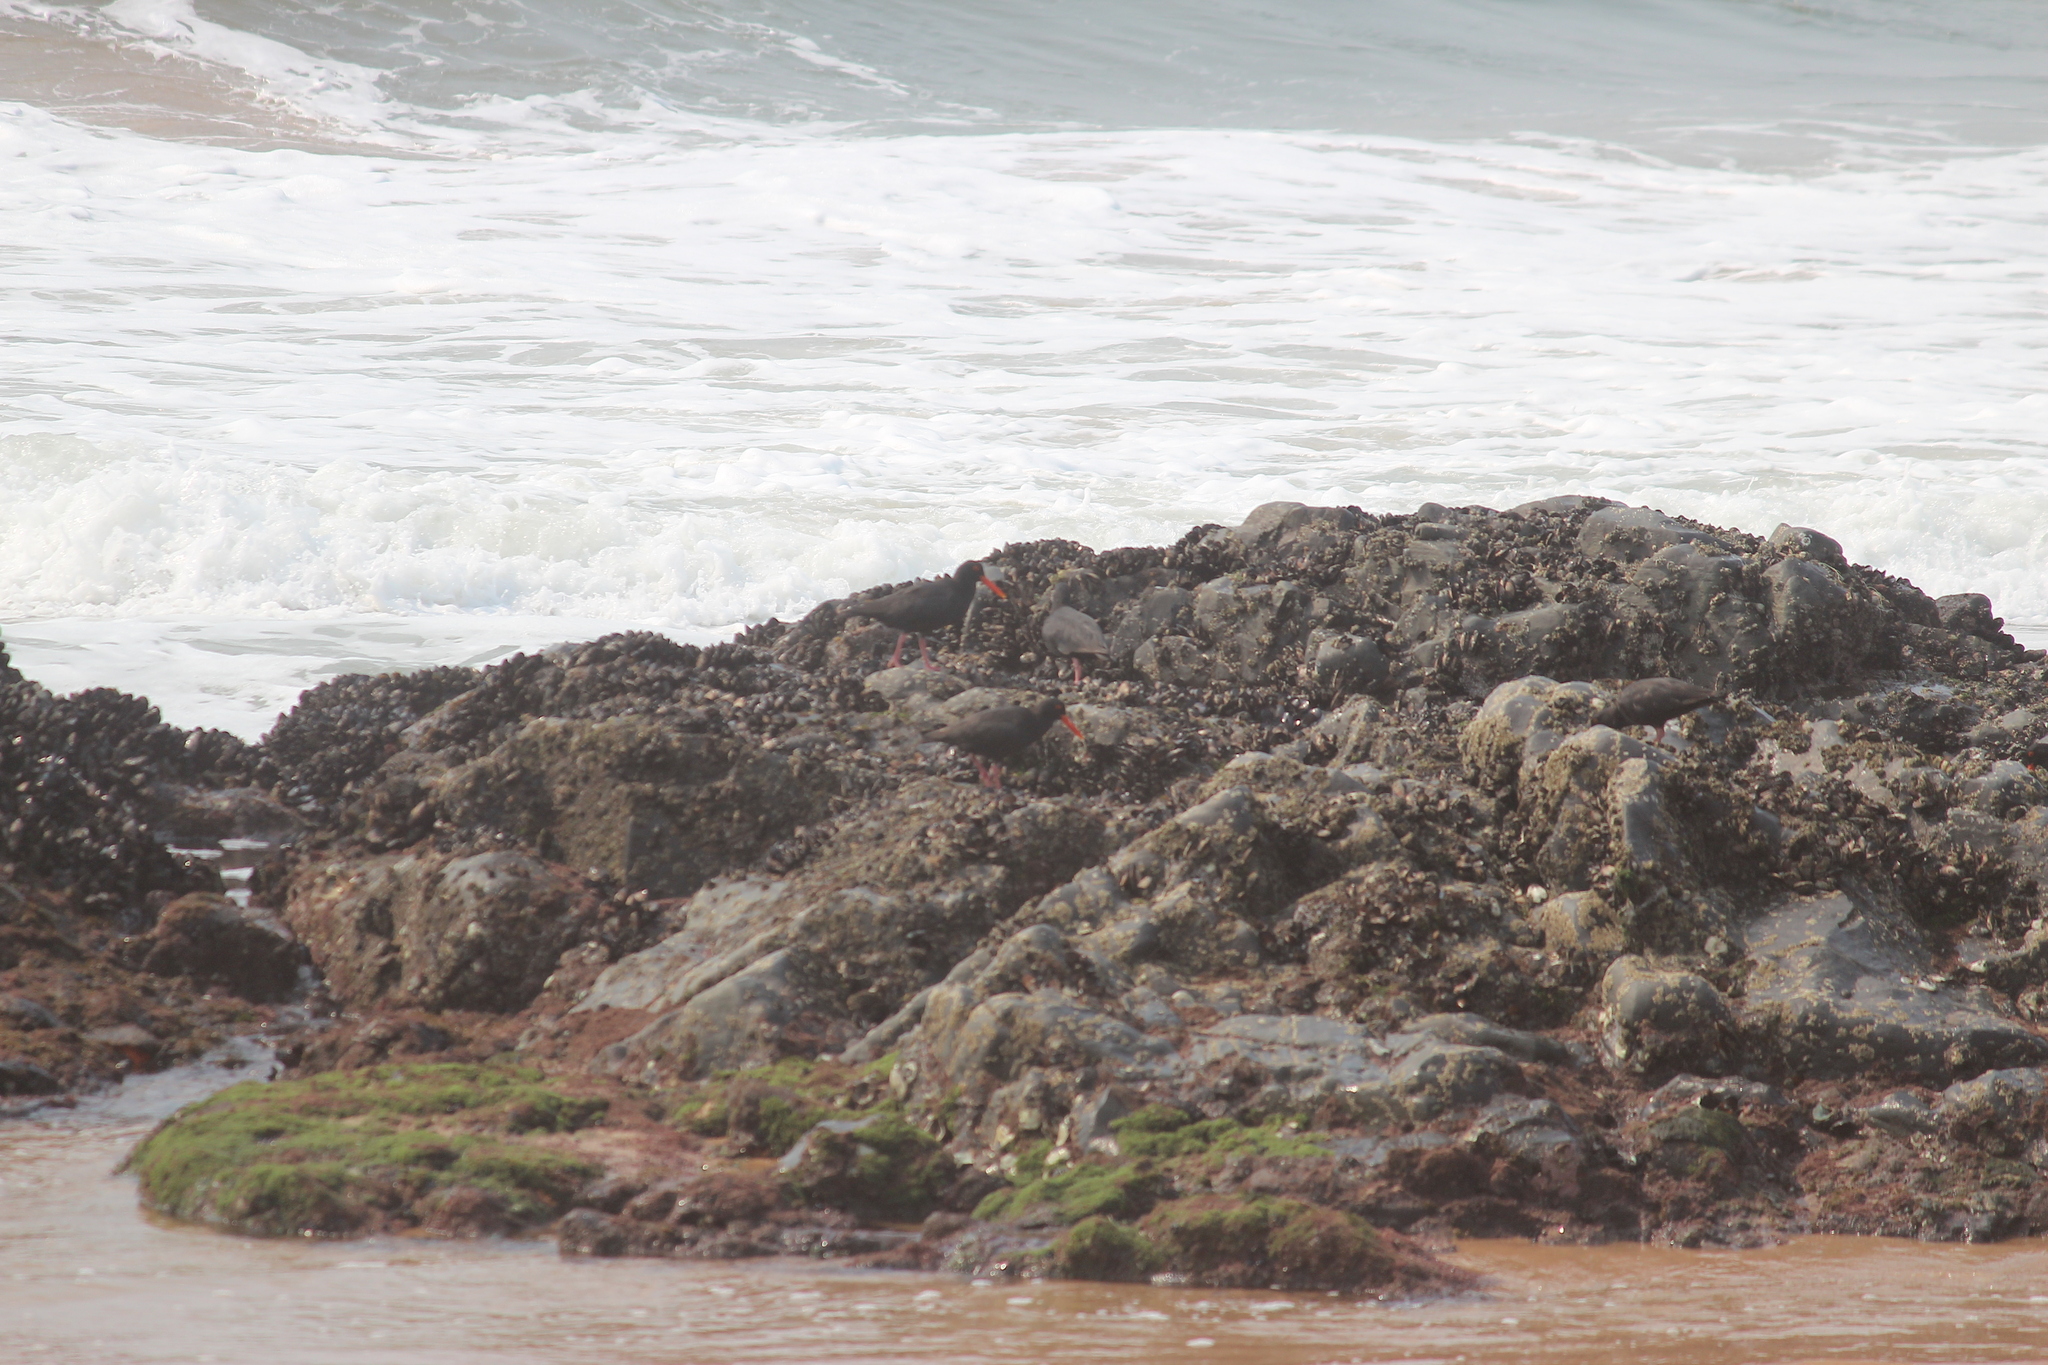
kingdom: Animalia
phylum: Chordata
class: Aves
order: Charadriiformes
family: Haematopodidae
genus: Haematopus
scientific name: Haematopus moquini
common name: African oystercatcher
